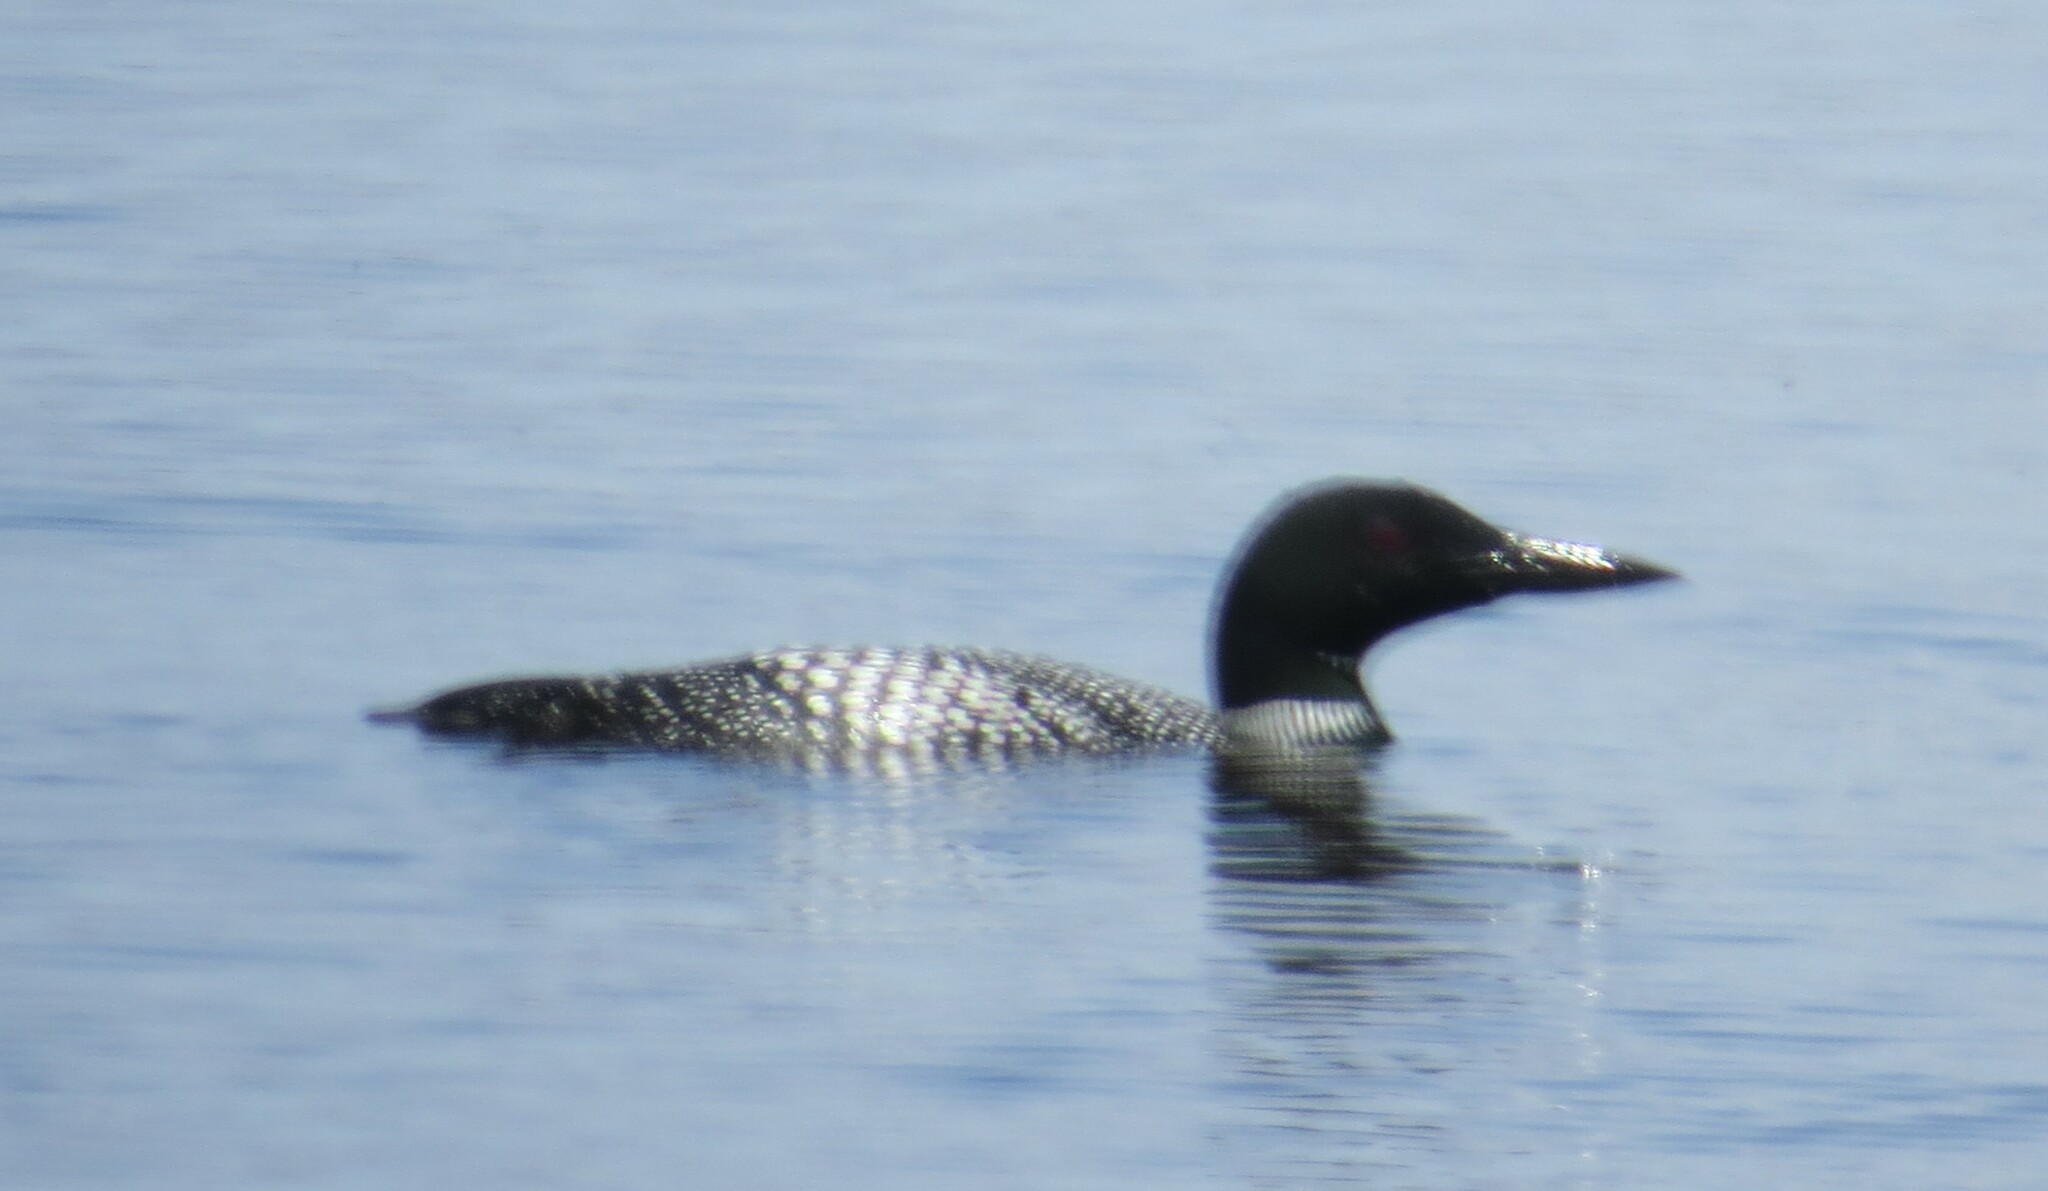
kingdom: Animalia
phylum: Chordata
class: Aves
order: Gaviiformes
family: Gaviidae
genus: Gavia
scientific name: Gavia immer
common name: Common loon
